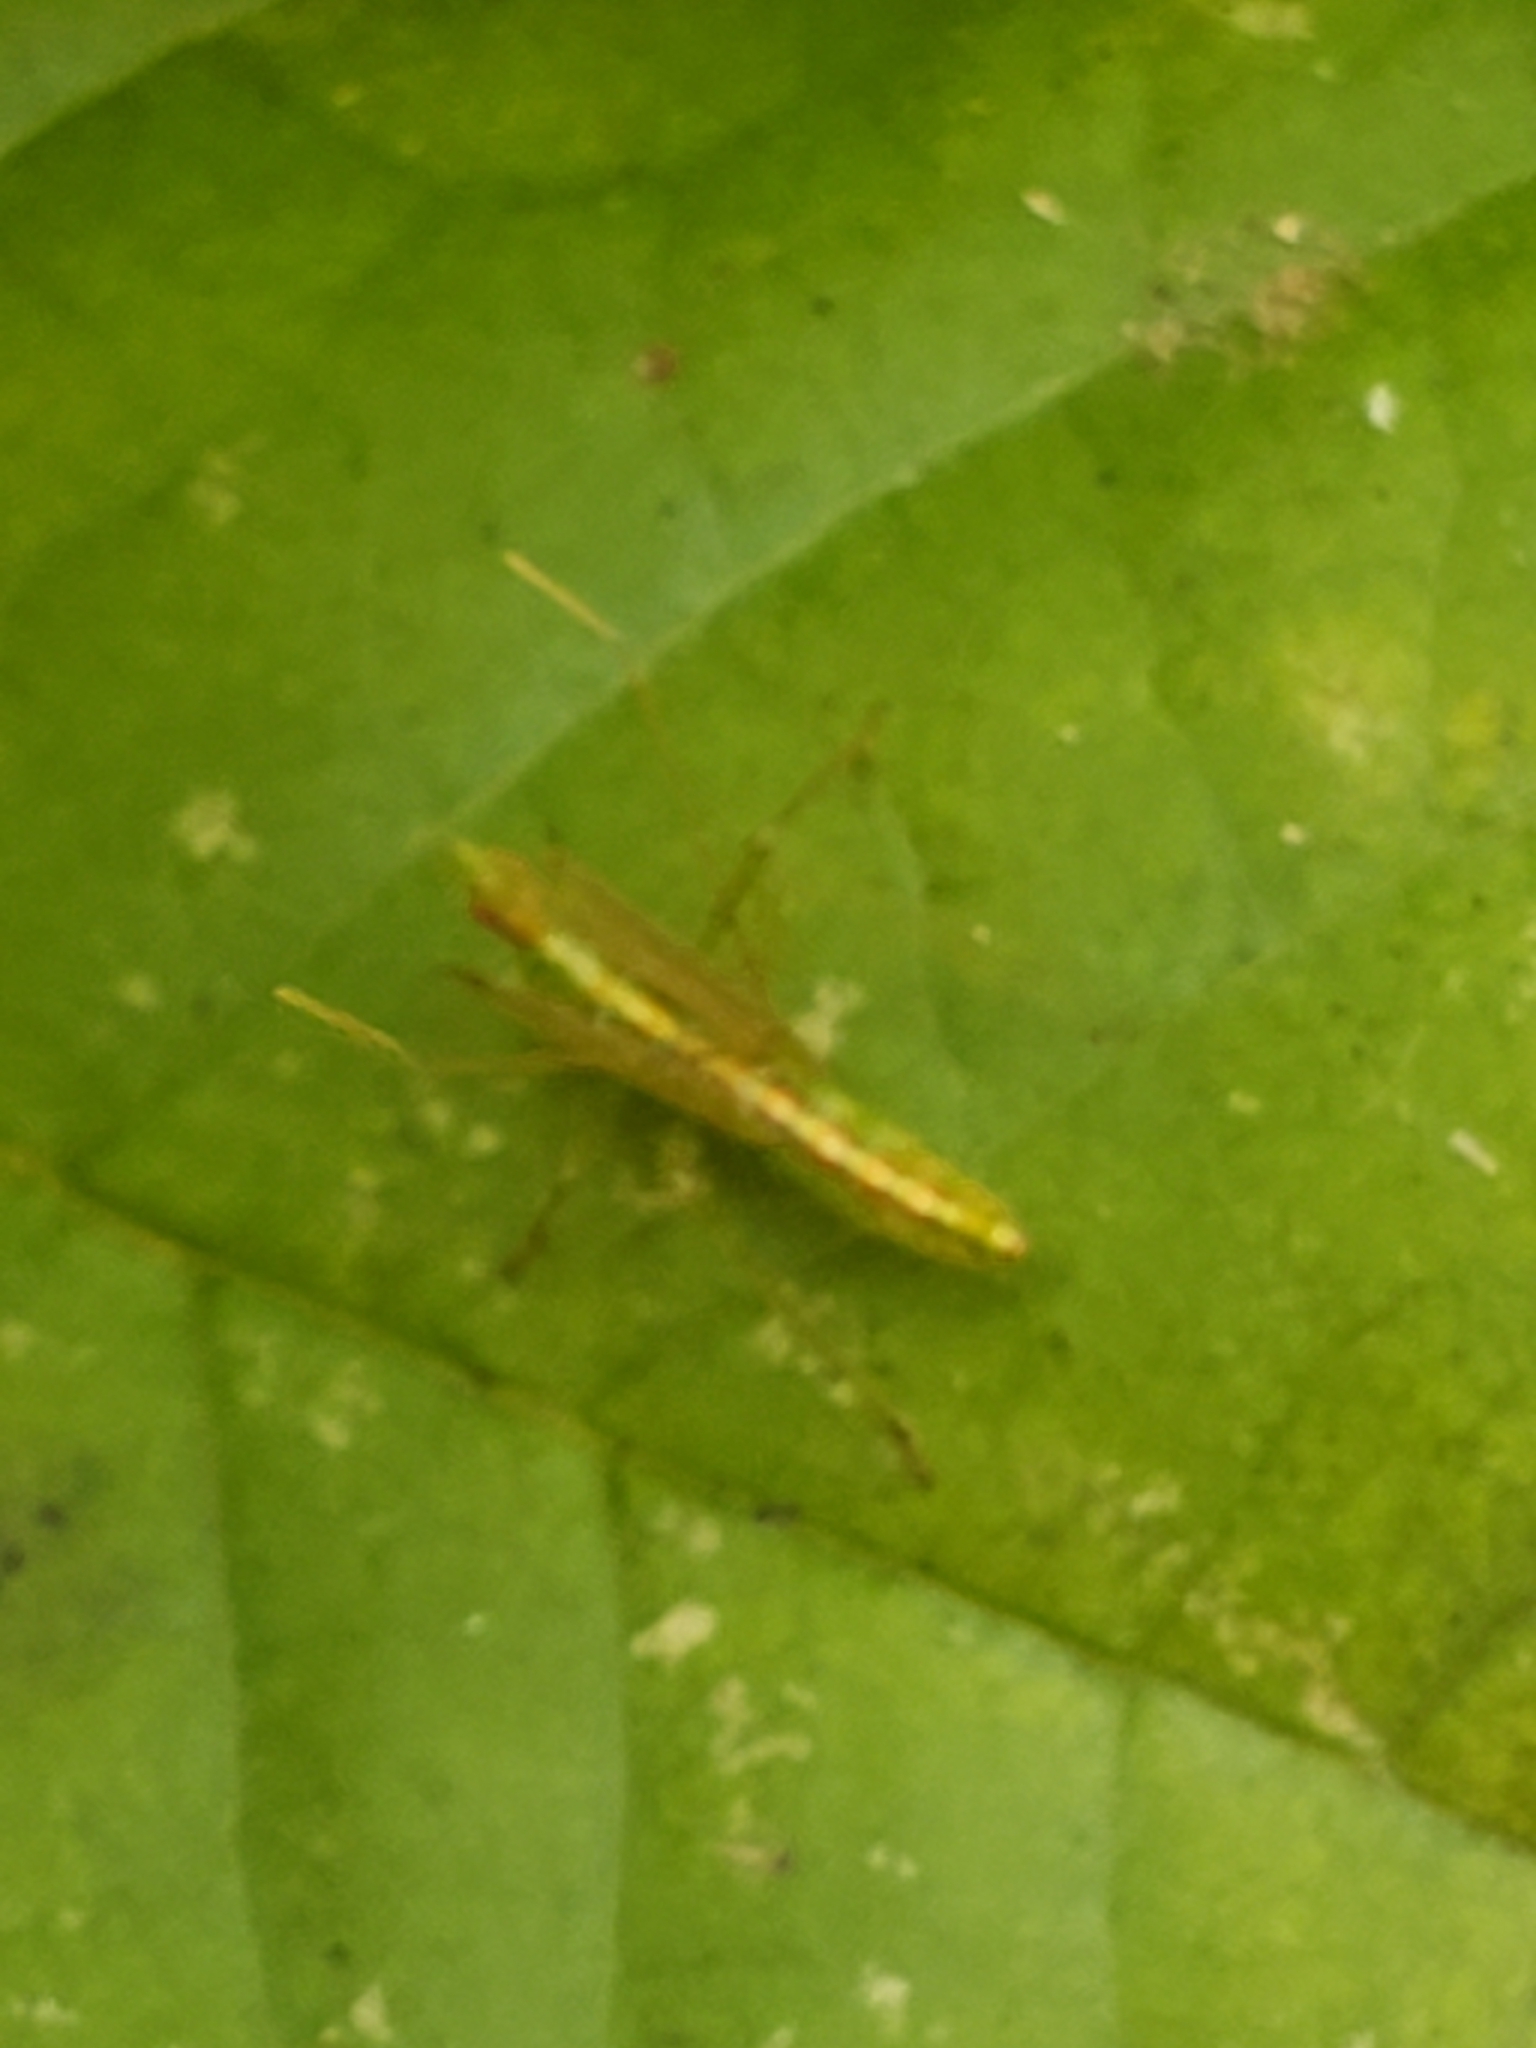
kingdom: Animalia
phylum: Arthropoda
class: Insecta
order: Hemiptera
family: Reduviidae
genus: Zelus
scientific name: Zelus luridus
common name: Pale green assassin bug
